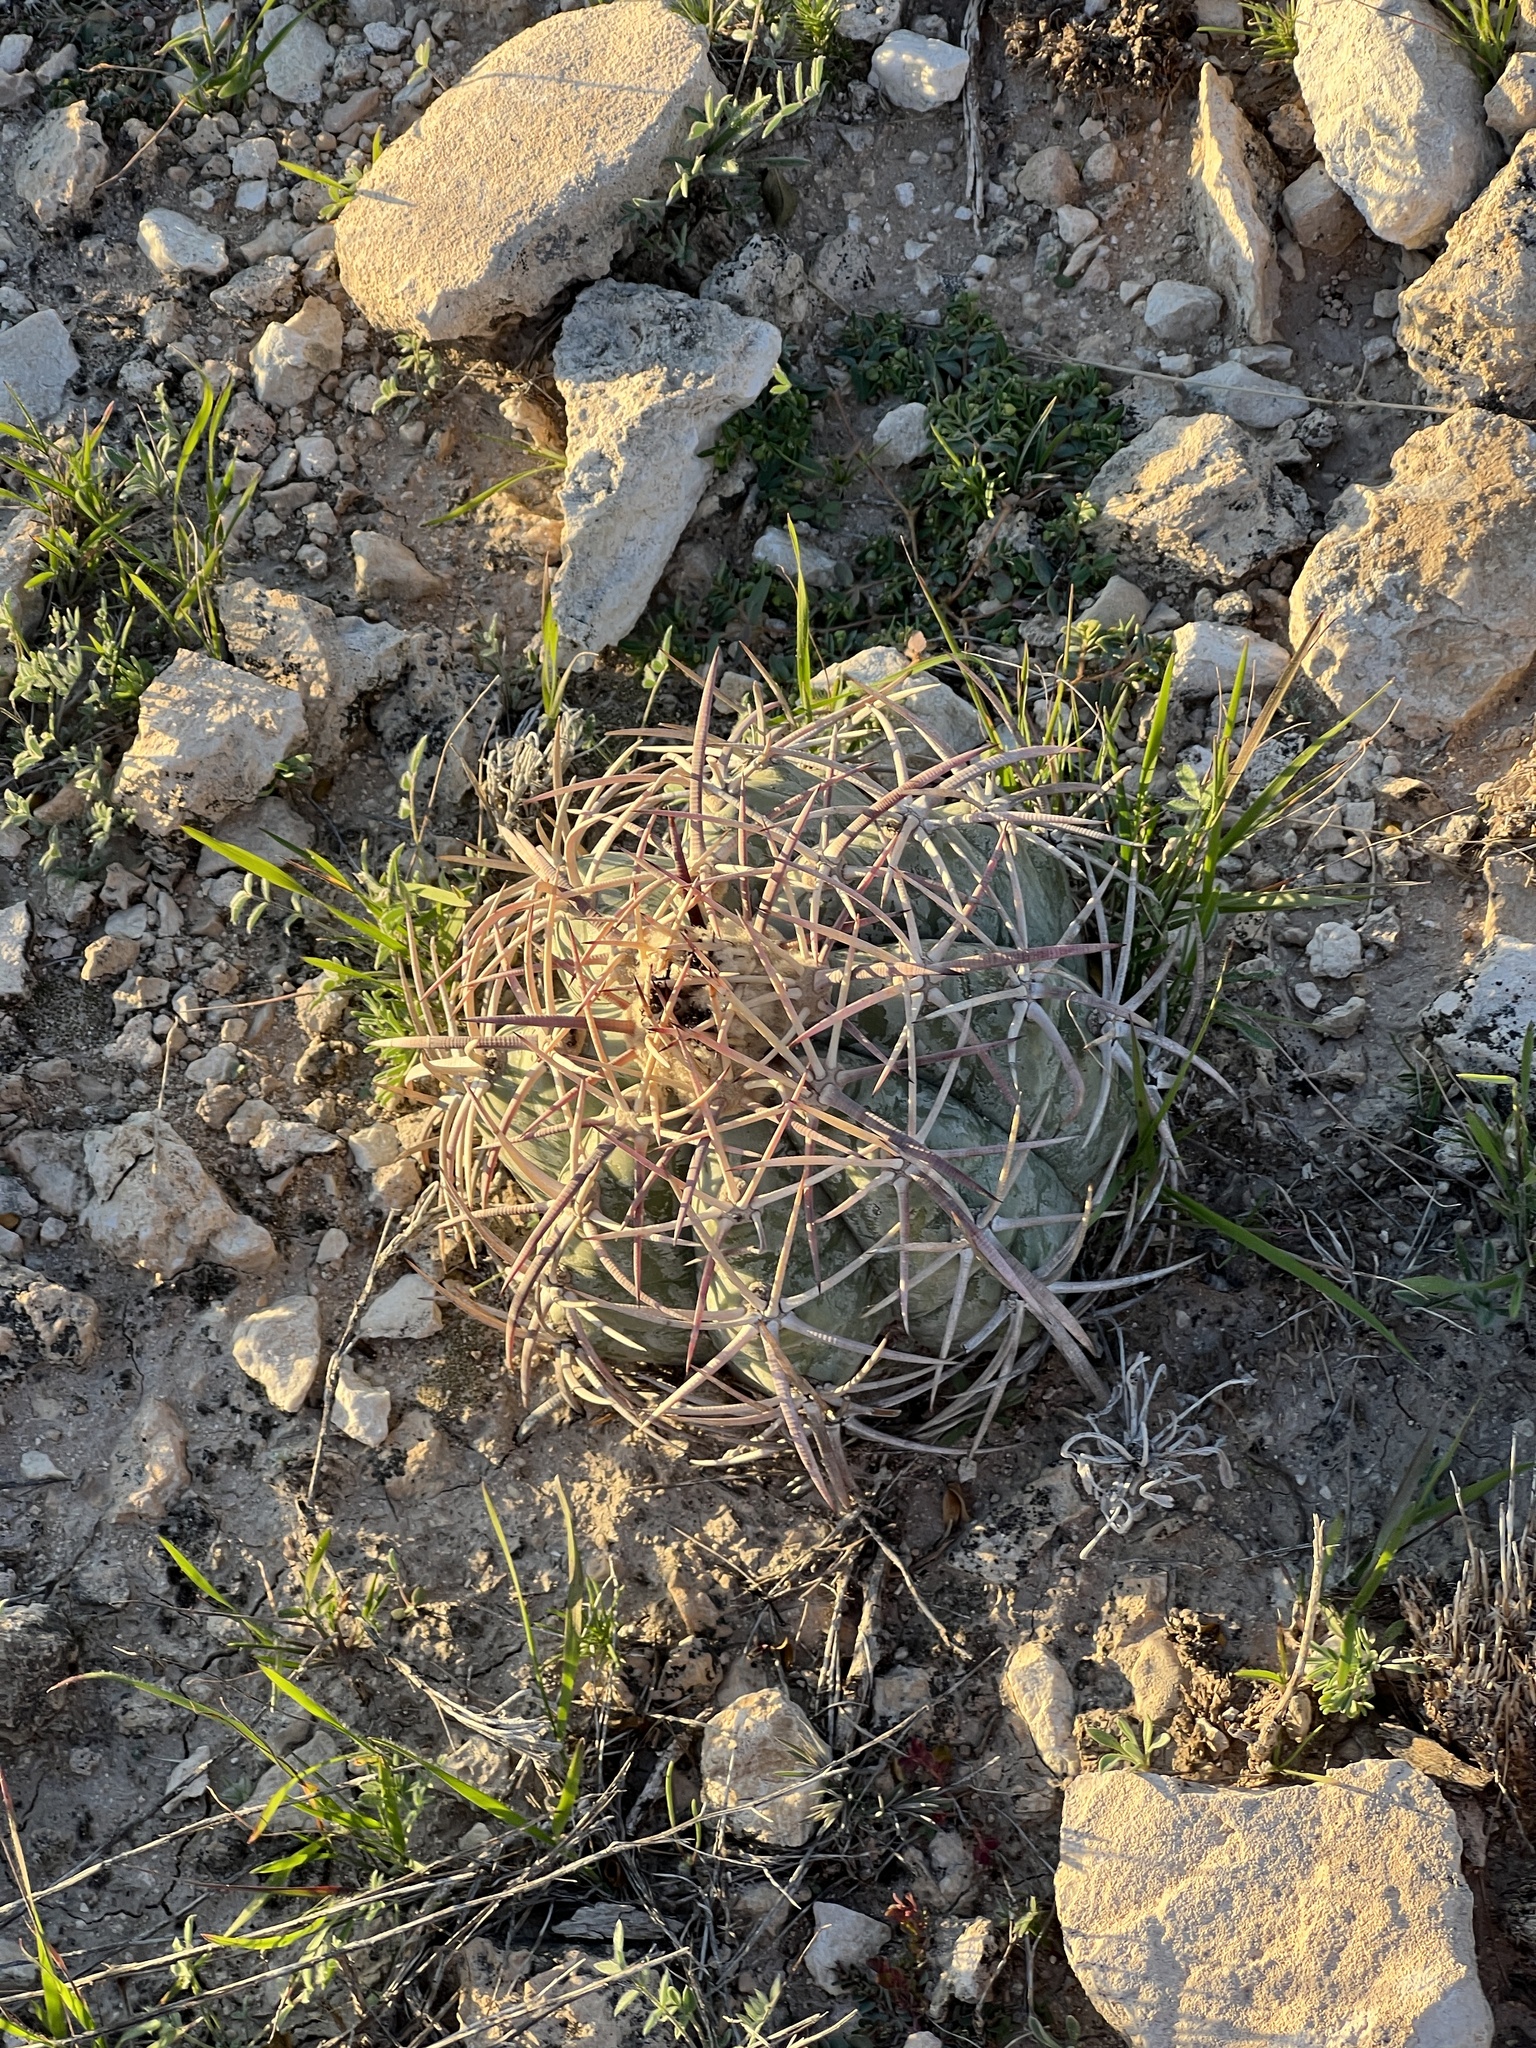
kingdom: Plantae
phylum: Tracheophyta
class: Magnoliopsida
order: Caryophyllales
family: Cactaceae
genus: Echinocactus
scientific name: Echinocactus horizonthalonius
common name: Devilshead
